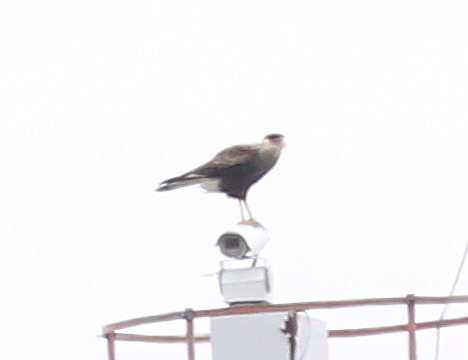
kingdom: Animalia
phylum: Chordata
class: Aves
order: Falconiformes
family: Falconidae
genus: Caracara
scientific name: Caracara plancus
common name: Southern caracara
